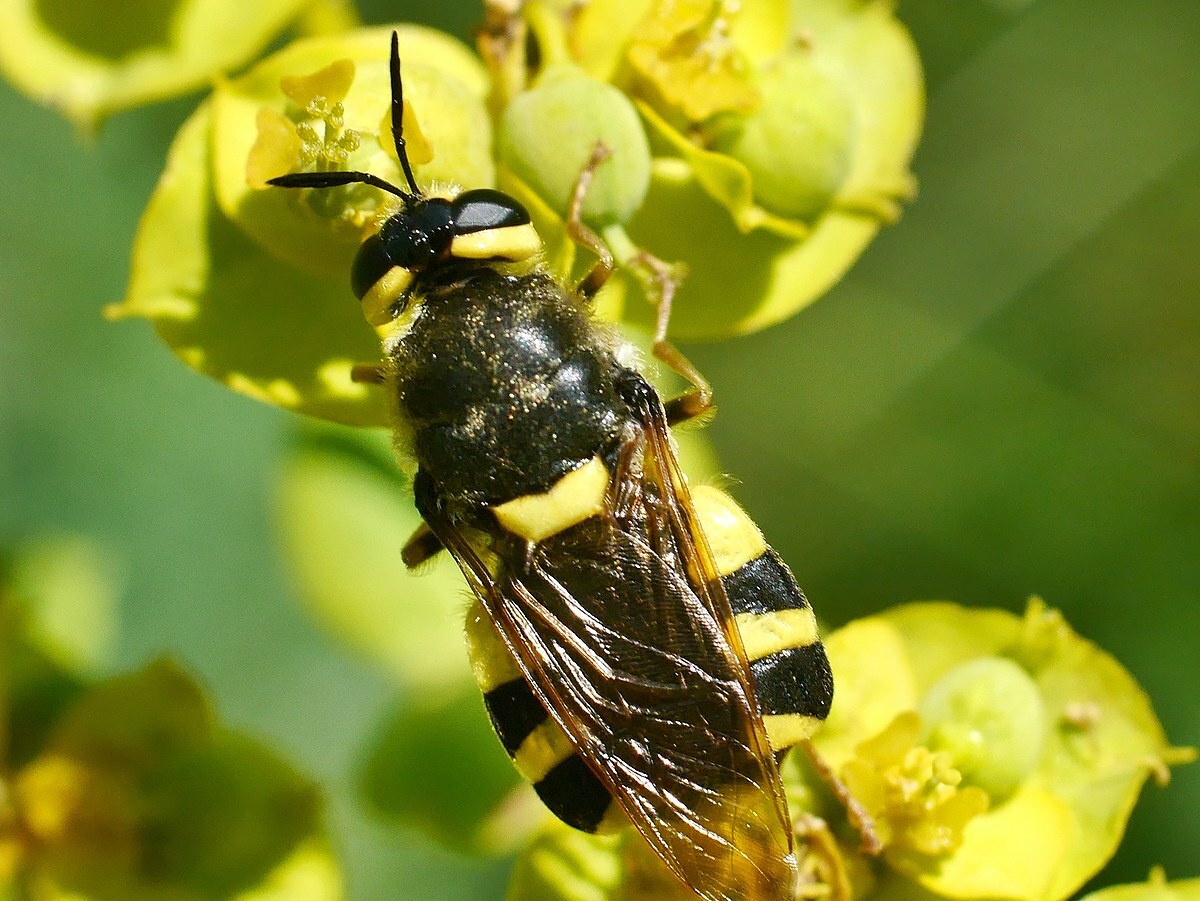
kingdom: Animalia
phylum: Arthropoda
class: Insecta
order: Diptera
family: Stratiomyidae
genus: Stratiomys
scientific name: Stratiomys chamaeleon
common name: Clubbed general
